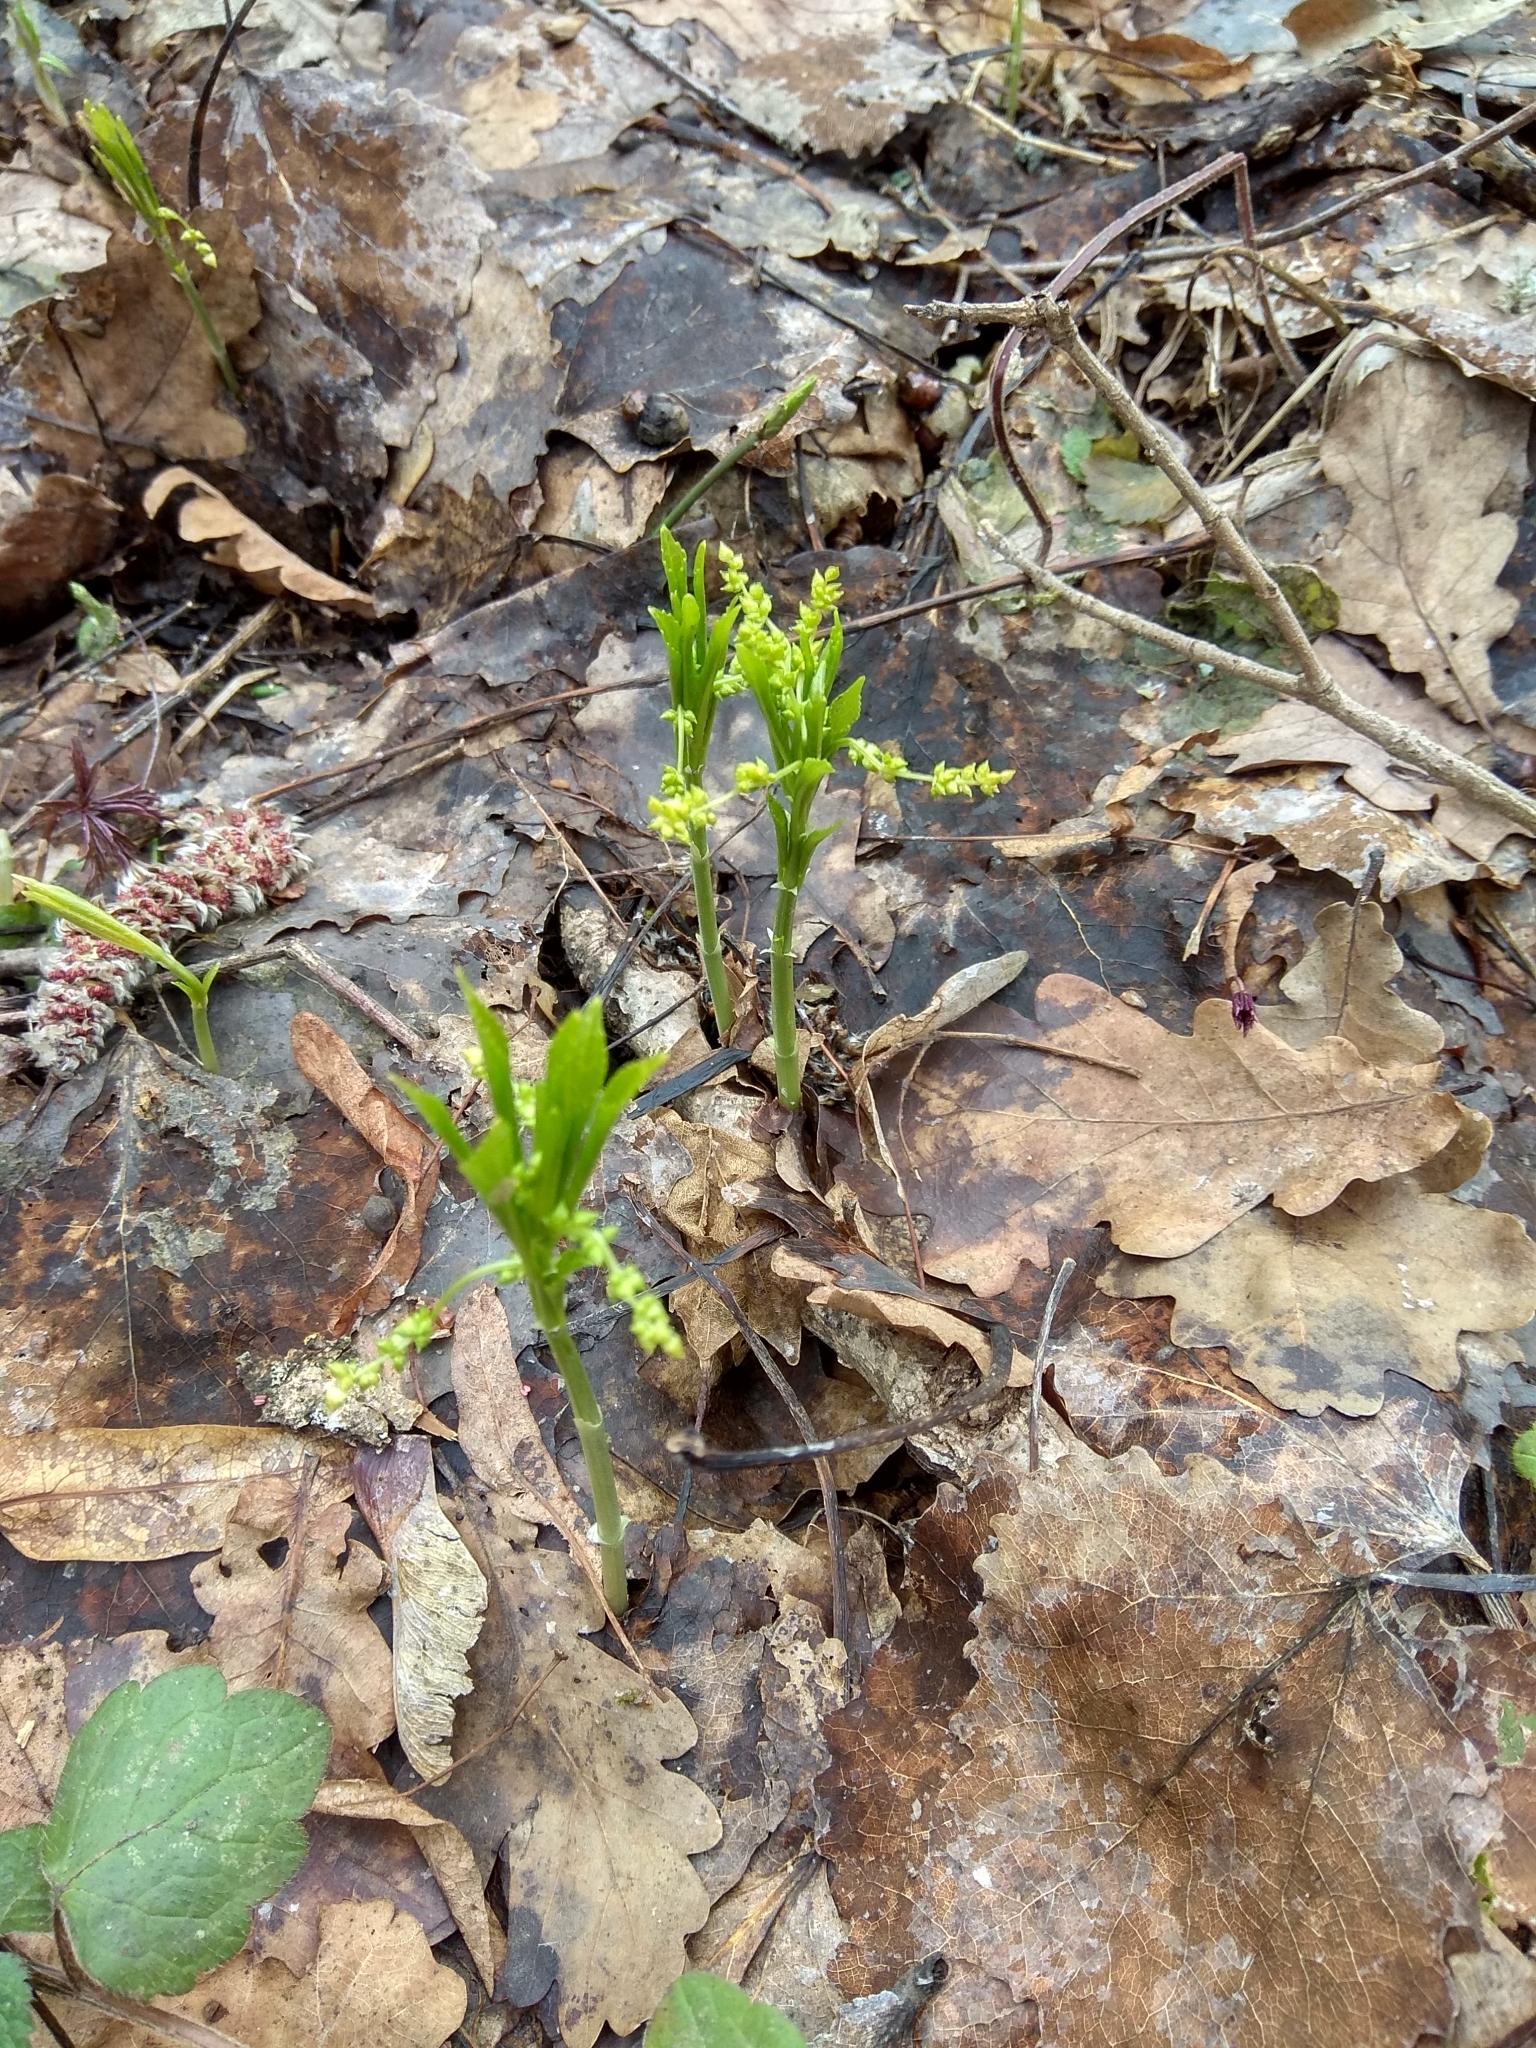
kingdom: Plantae
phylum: Tracheophyta
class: Magnoliopsida
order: Malpighiales
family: Euphorbiaceae
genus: Mercurialis
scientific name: Mercurialis perennis
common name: Dog mercury
